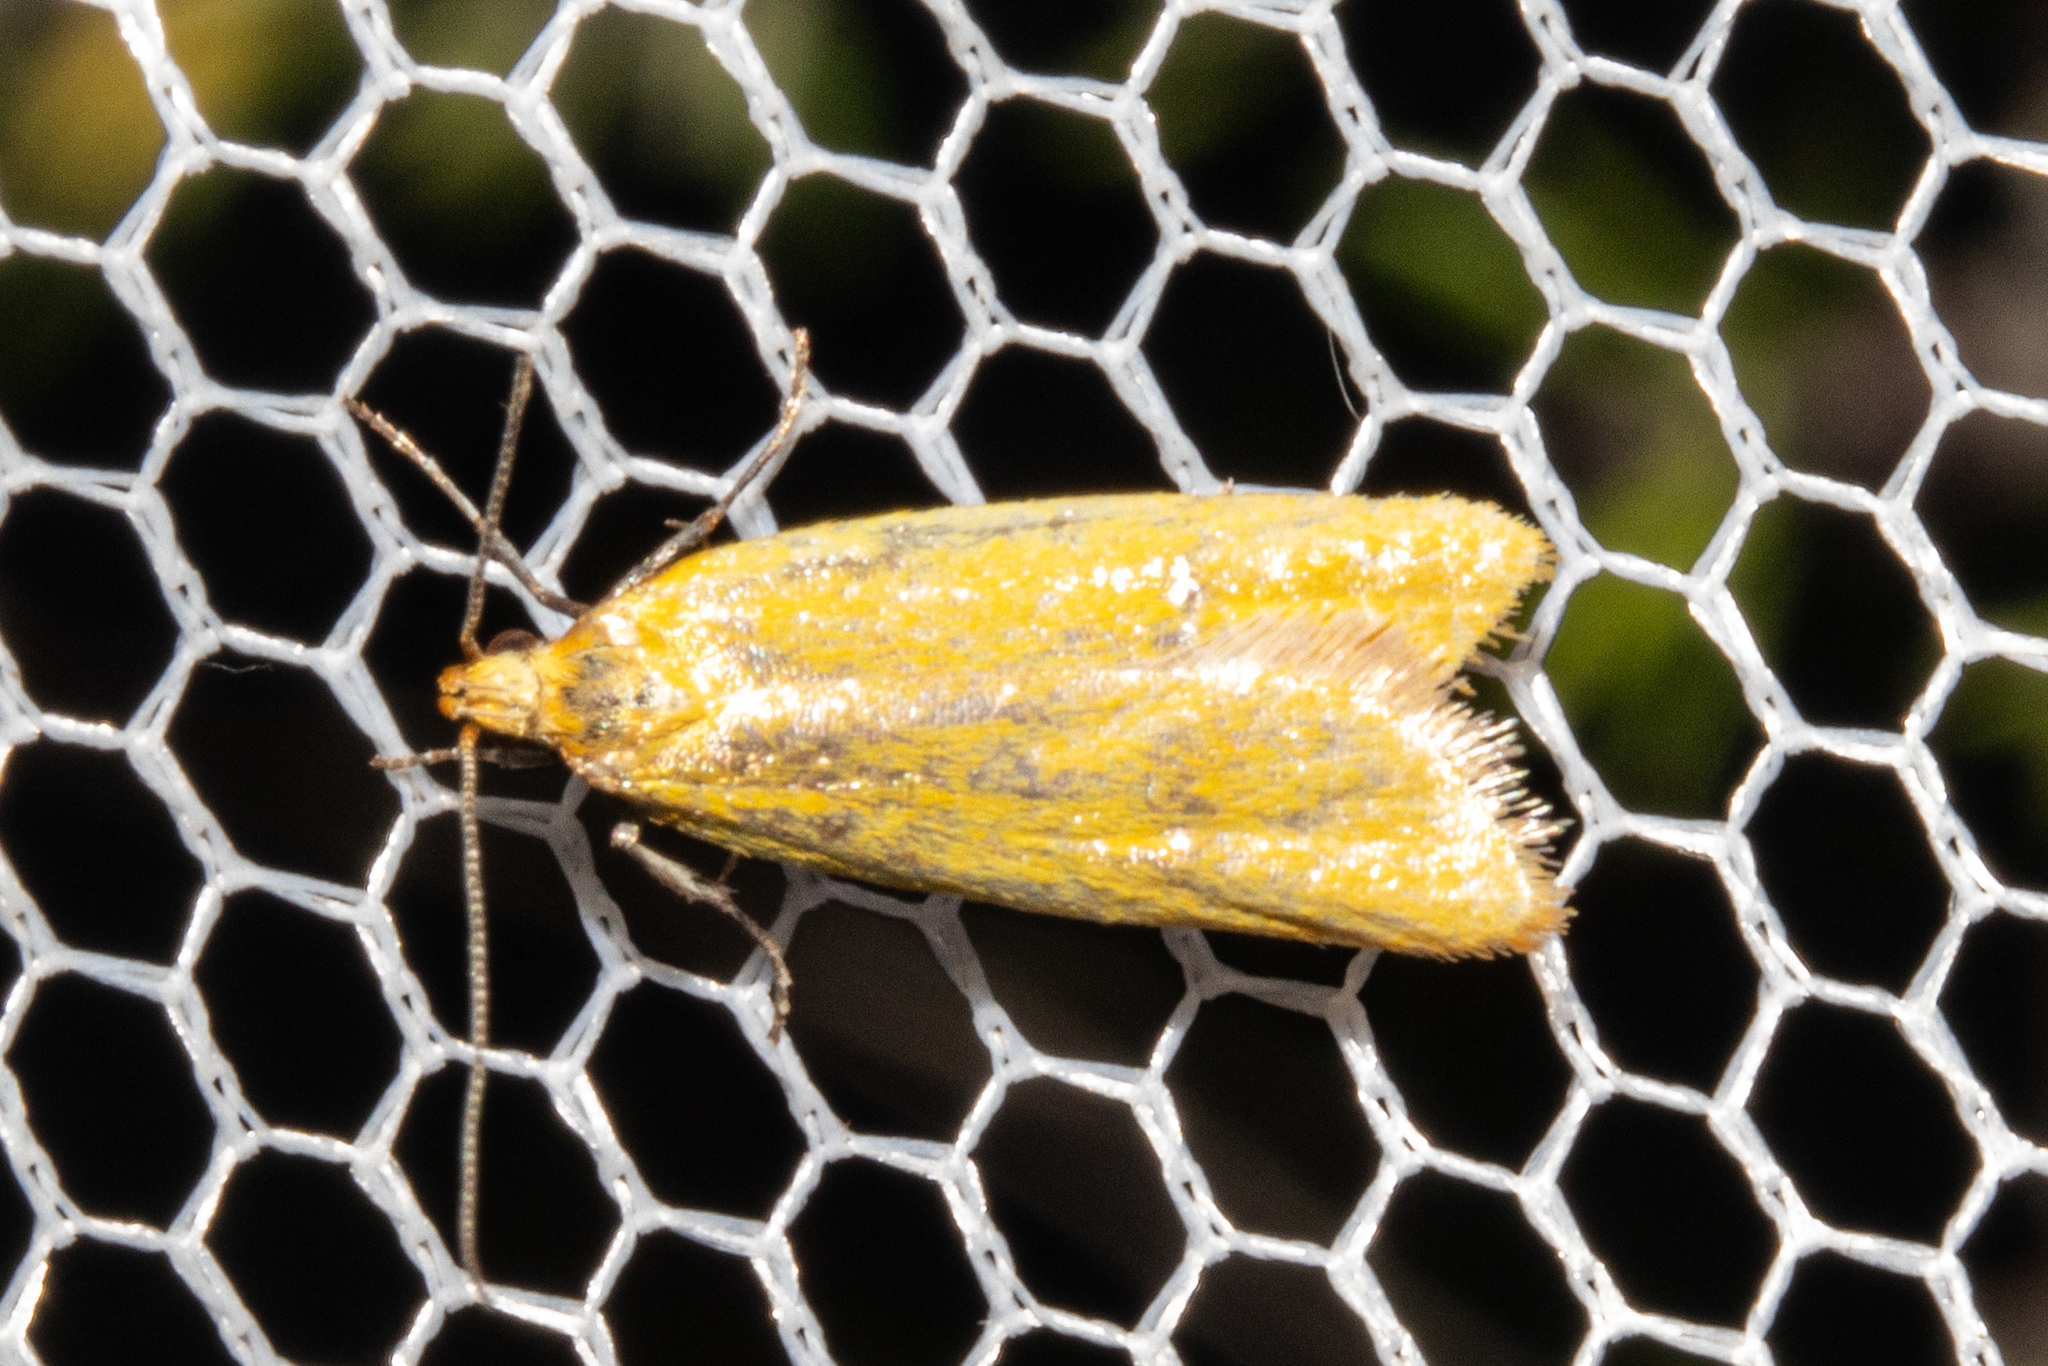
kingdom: Animalia
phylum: Arthropoda
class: Insecta
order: Lepidoptera
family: Oecophoridae
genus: Gymnobathra
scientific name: Gymnobathra parca
